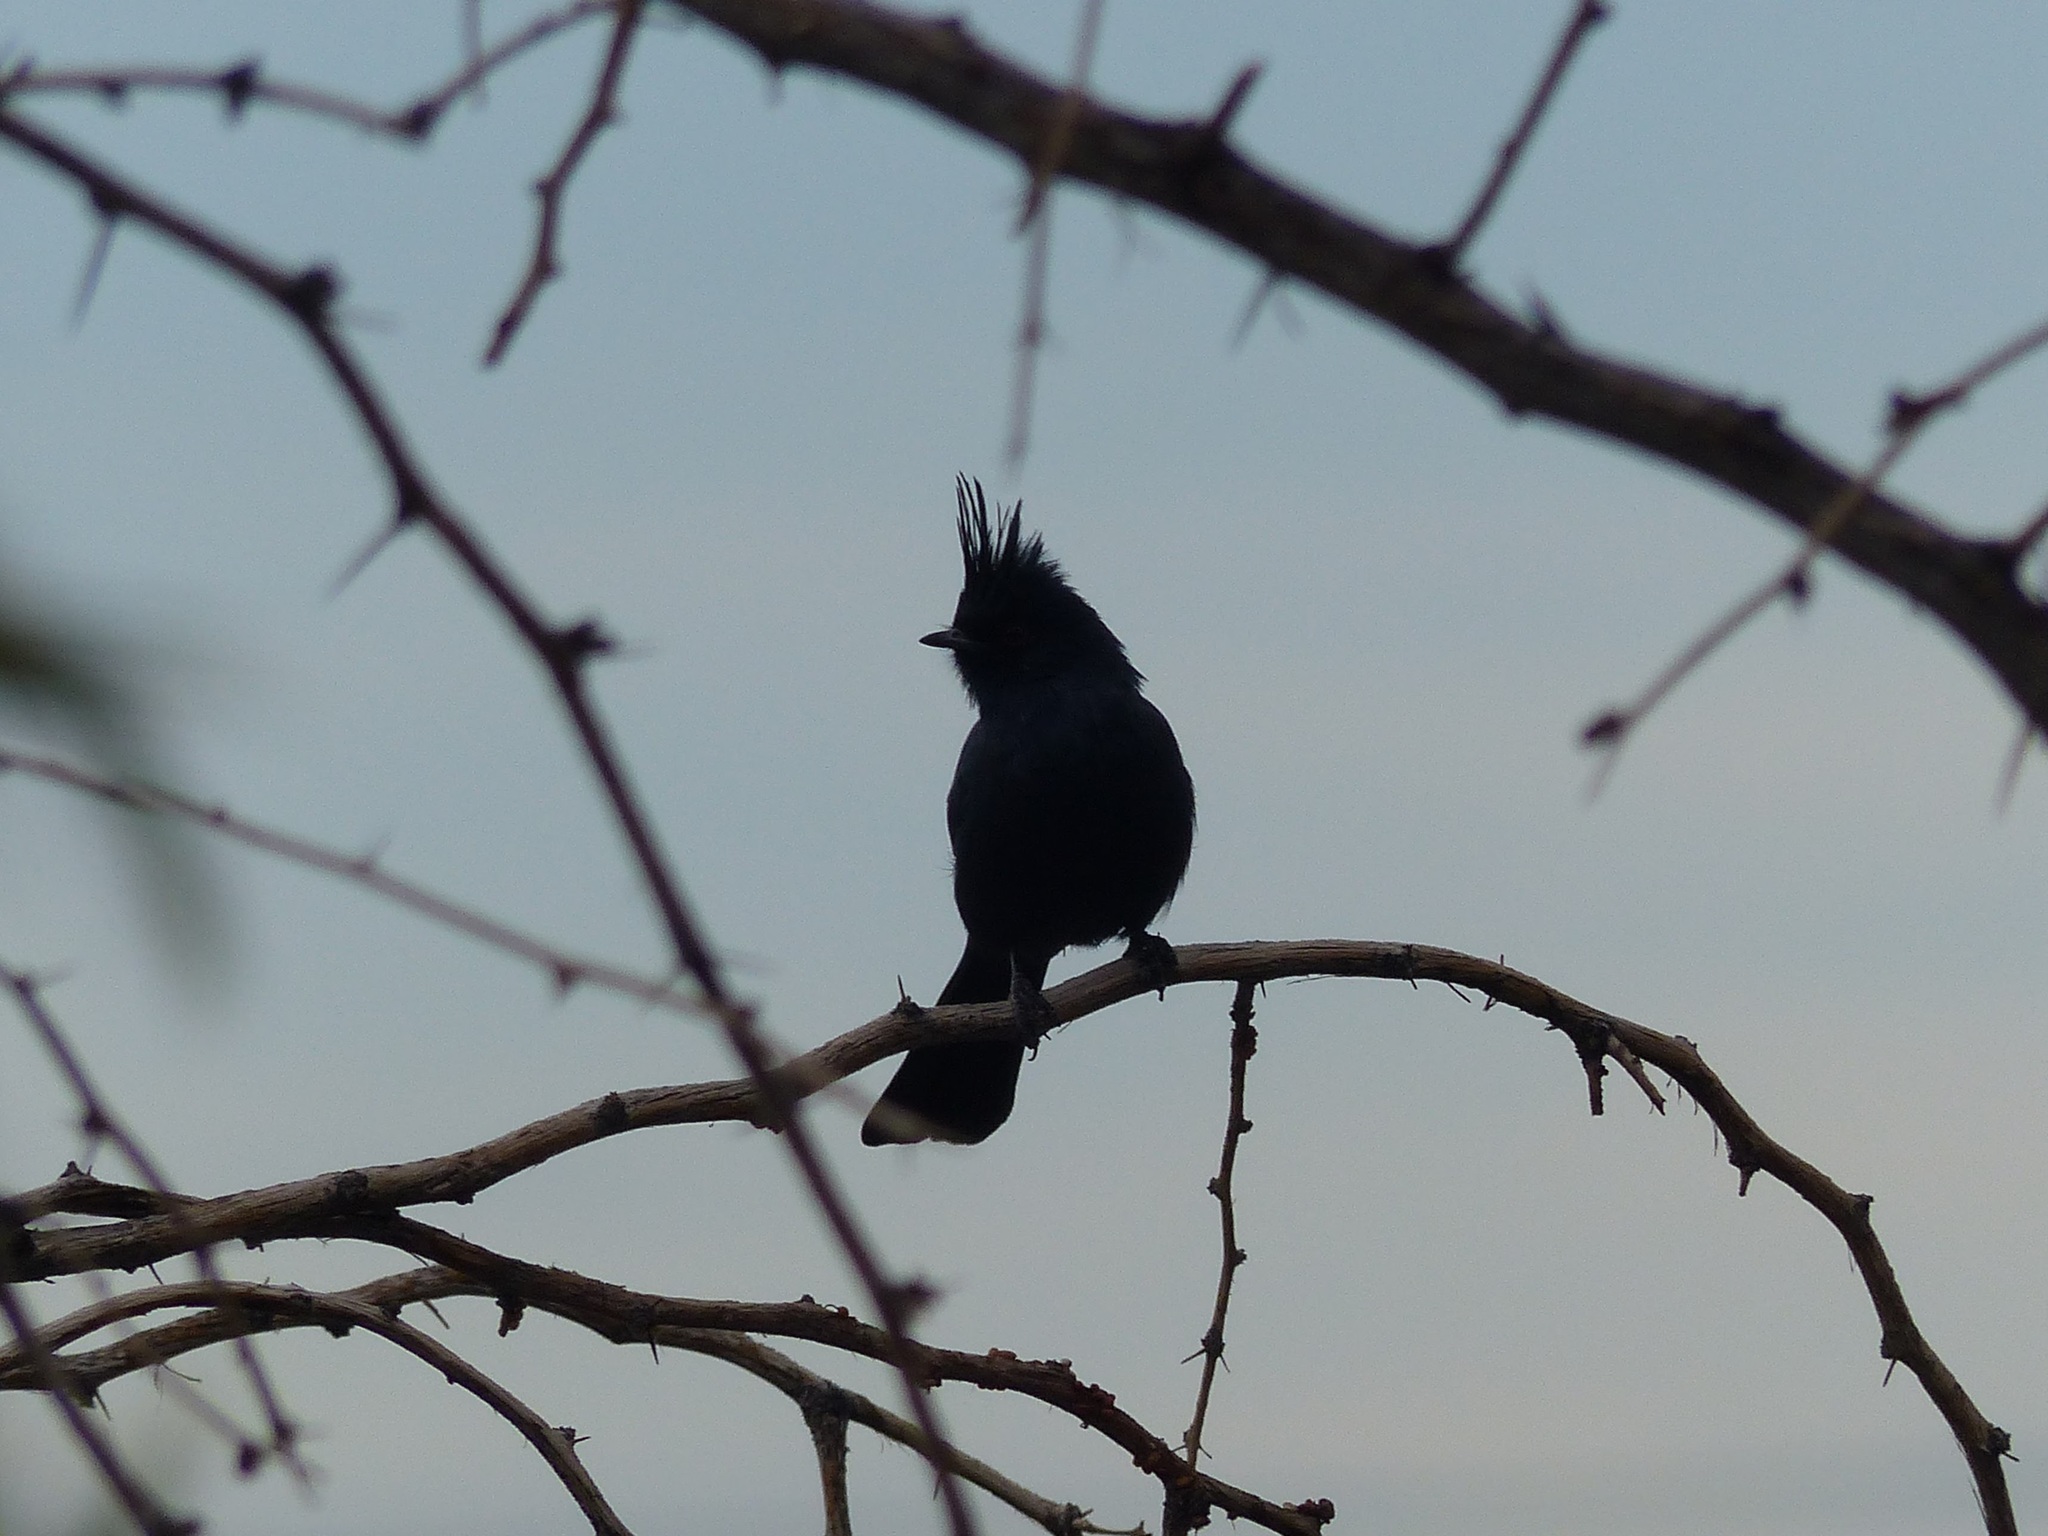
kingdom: Animalia
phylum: Chordata
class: Aves
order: Passeriformes
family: Ptilogonatidae
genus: Phainopepla
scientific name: Phainopepla nitens
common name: Phainopepla
